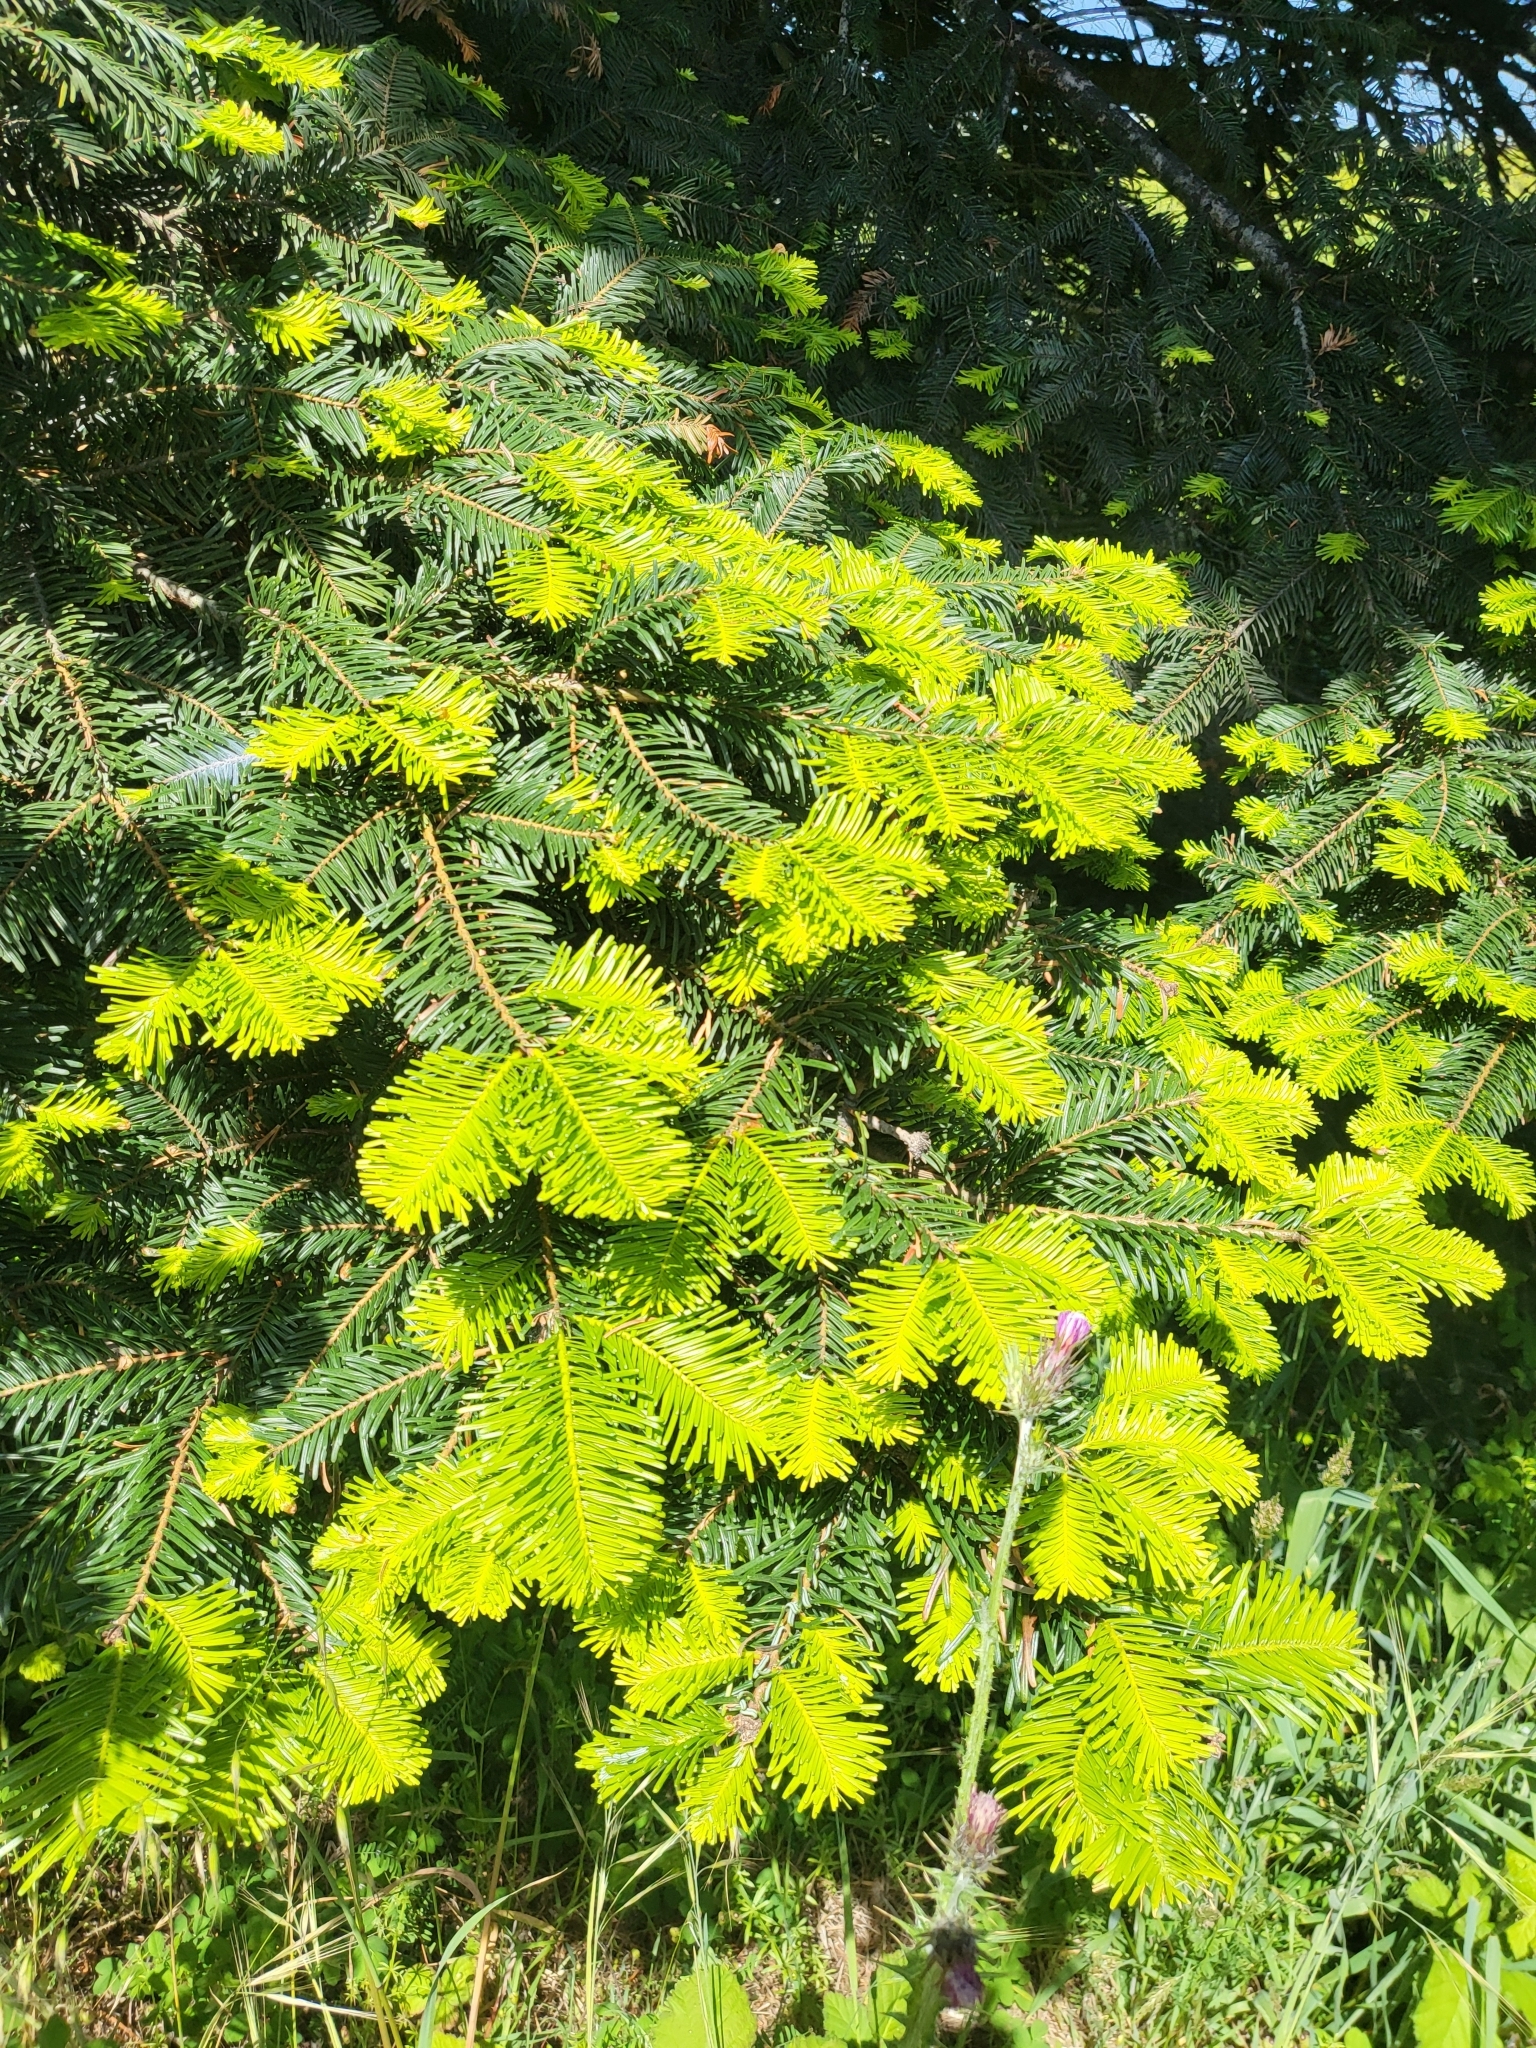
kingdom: Plantae
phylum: Tracheophyta
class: Pinopsida
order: Pinales
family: Pinaceae
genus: Abies
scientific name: Abies grandis
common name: Giant fir
